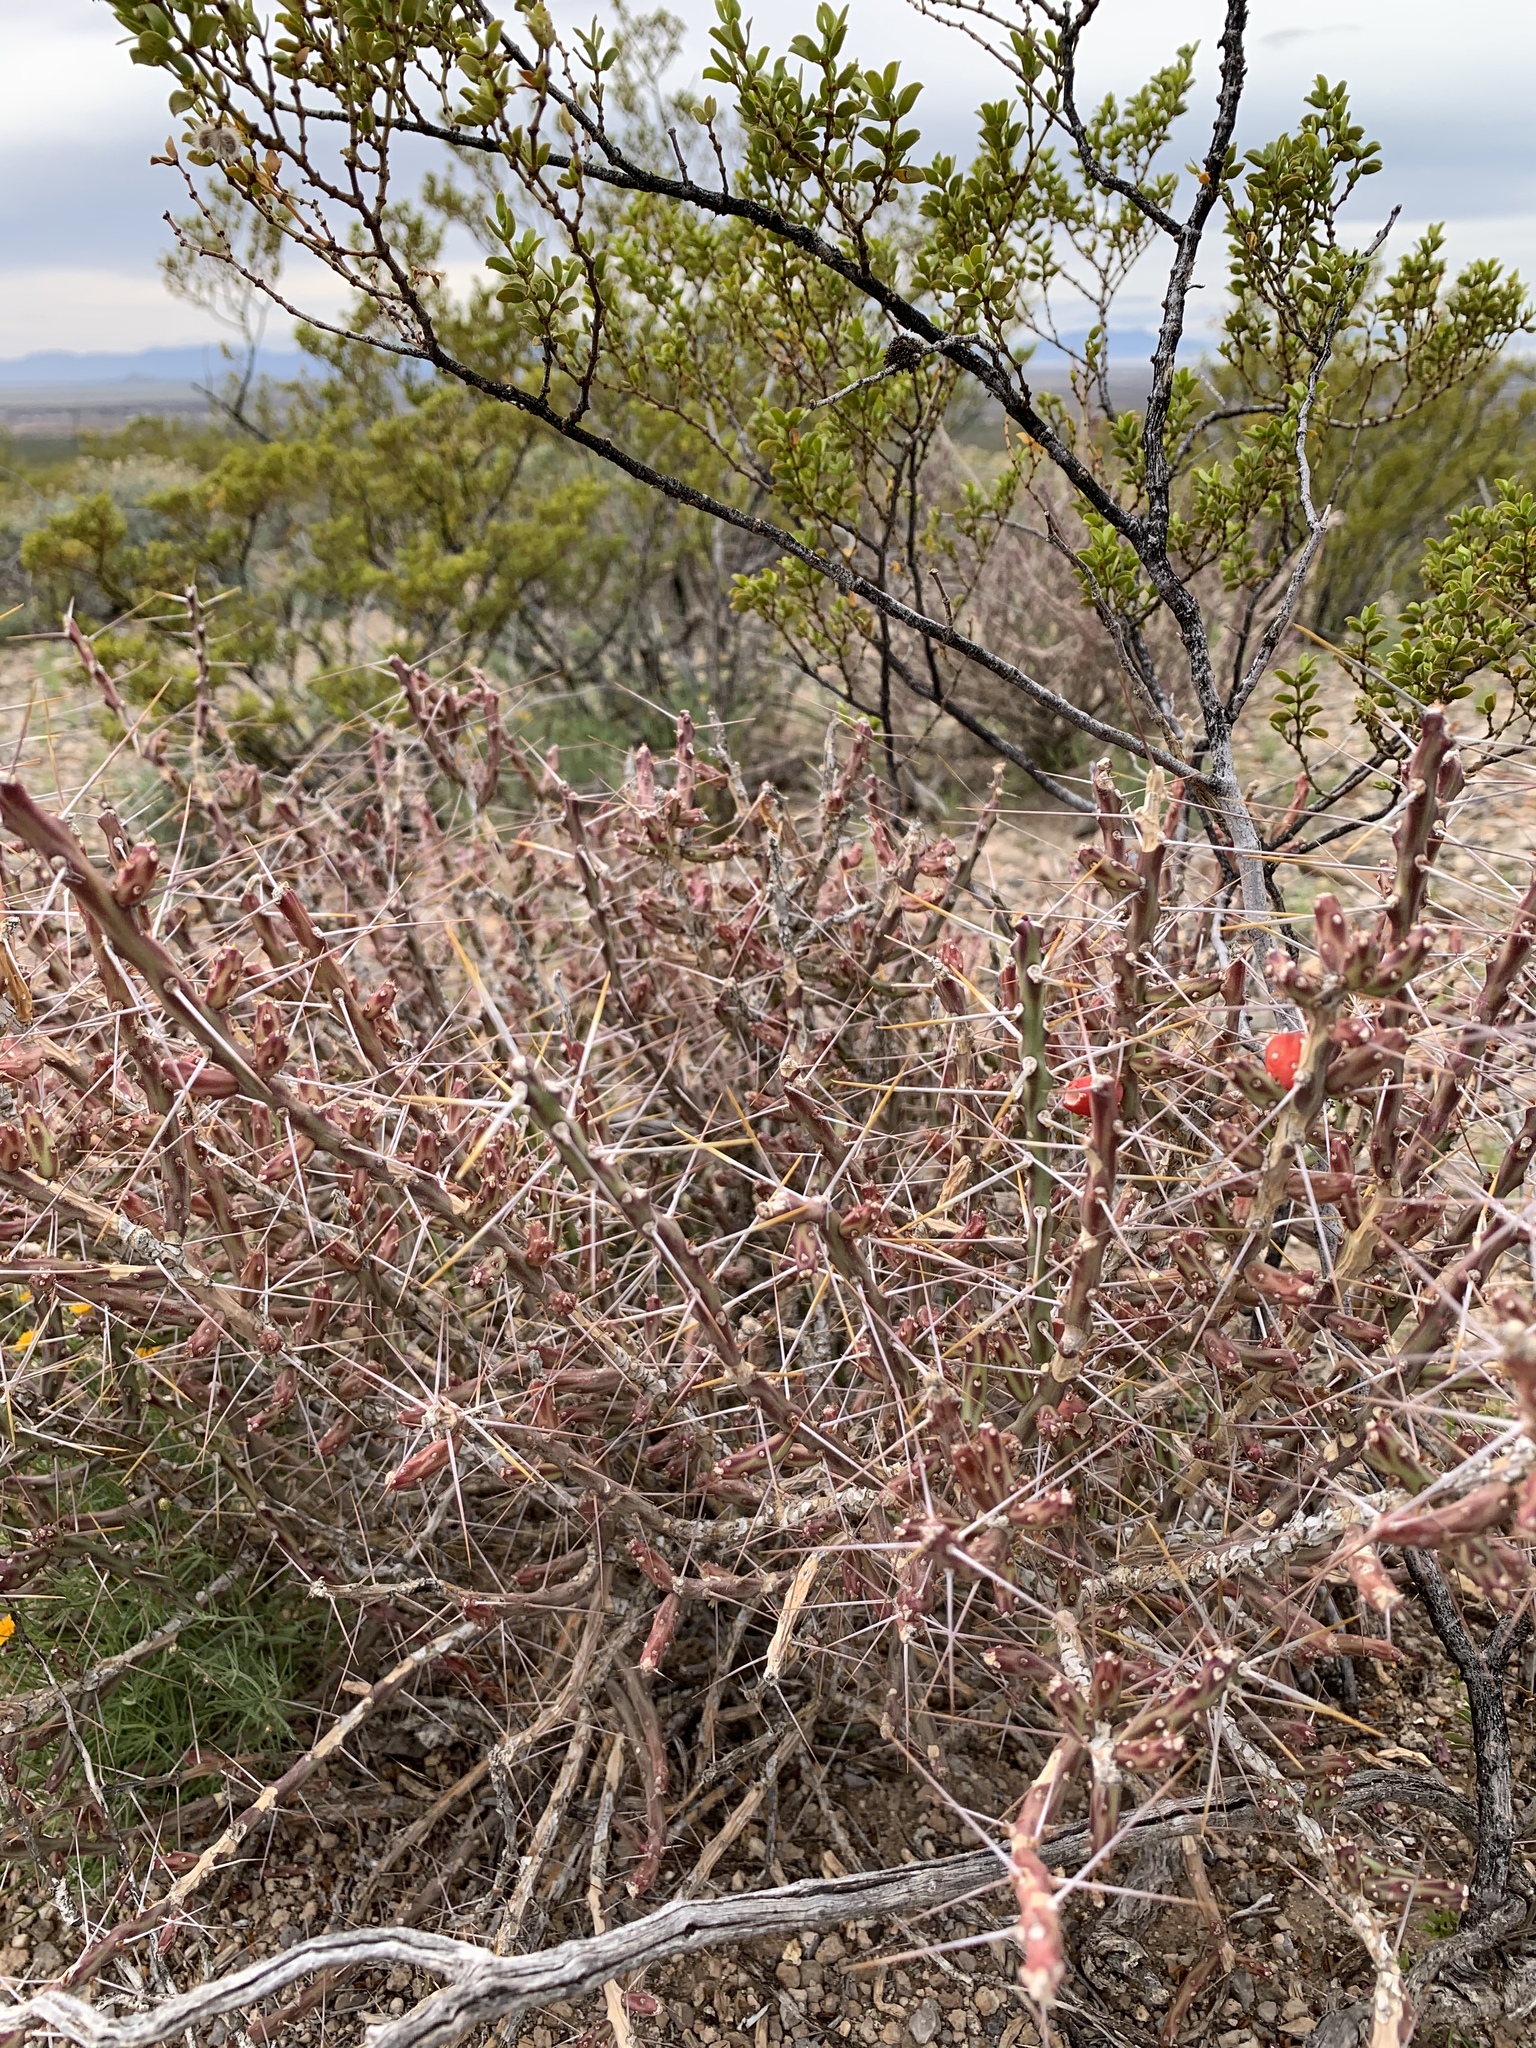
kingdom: Plantae
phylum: Tracheophyta
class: Magnoliopsida
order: Caryophyllales
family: Cactaceae
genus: Cylindropuntia
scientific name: Cylindropuntia leptocaulis
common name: Christmas cactus
